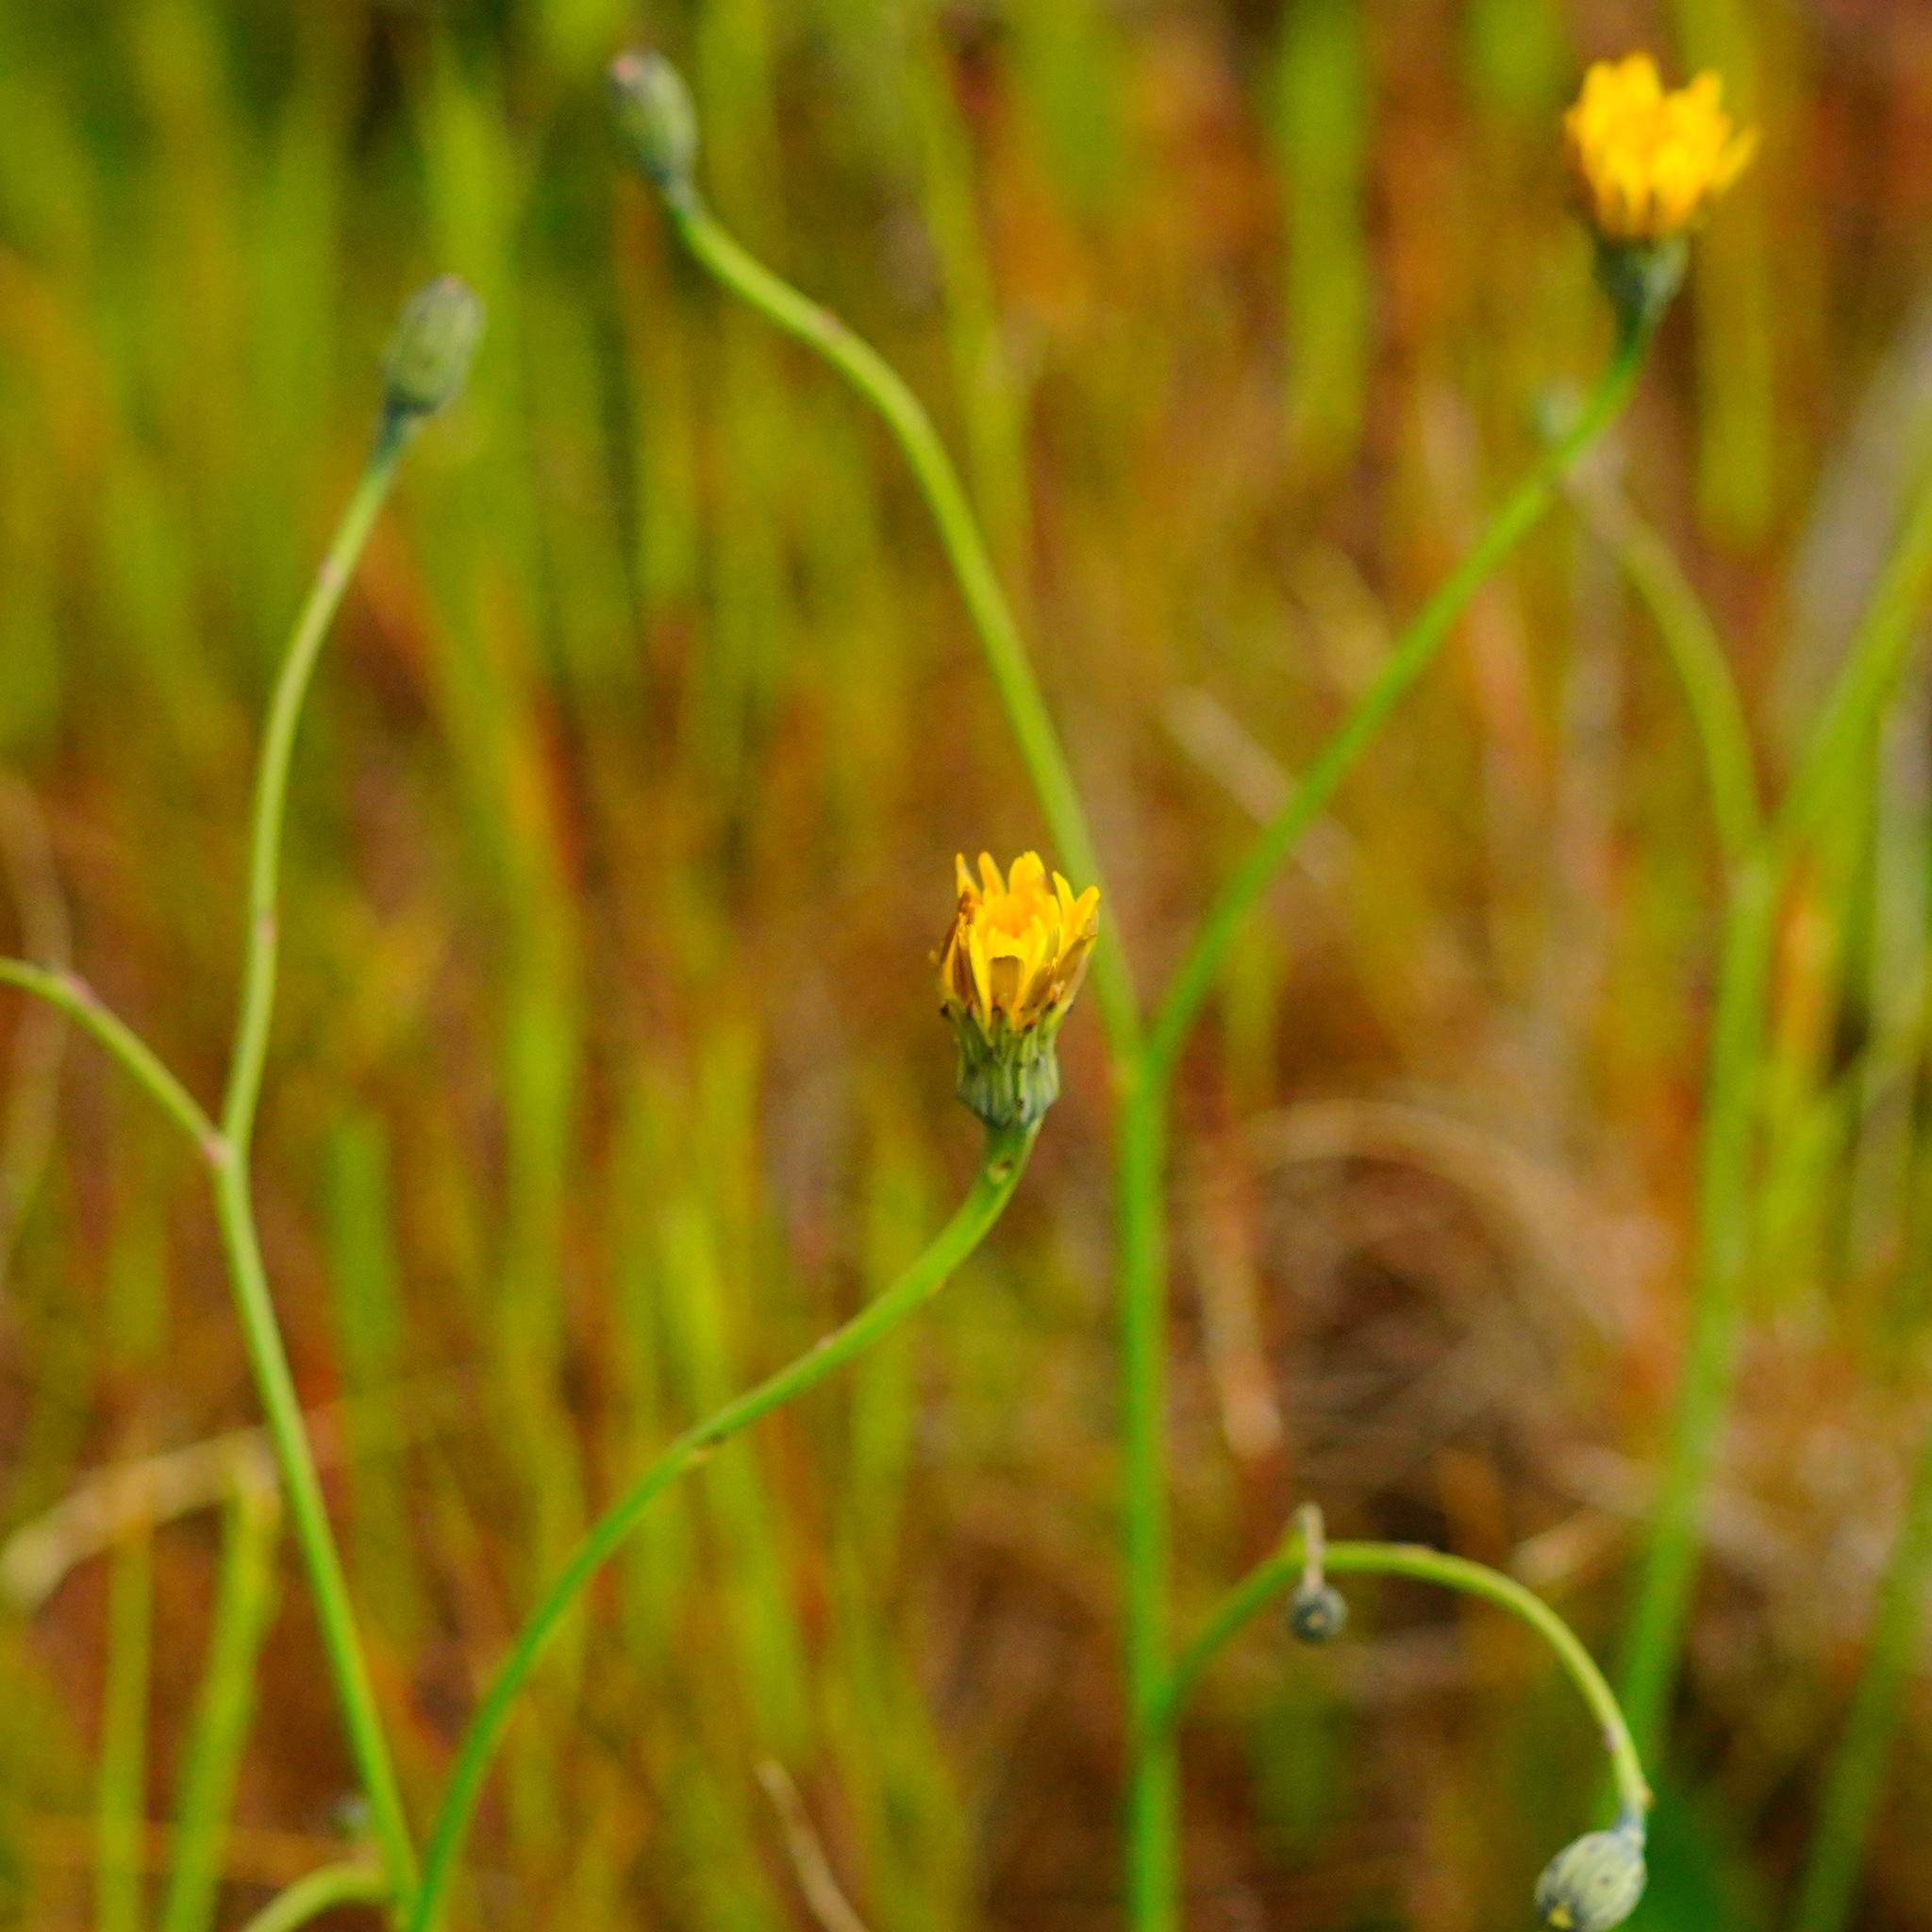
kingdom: Plantae
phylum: Tracheophyta
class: Magnoliopsida
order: Asterales
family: Asteraceae
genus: Hypochaeris
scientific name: Hypochaeris radicata
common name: Flatweed
